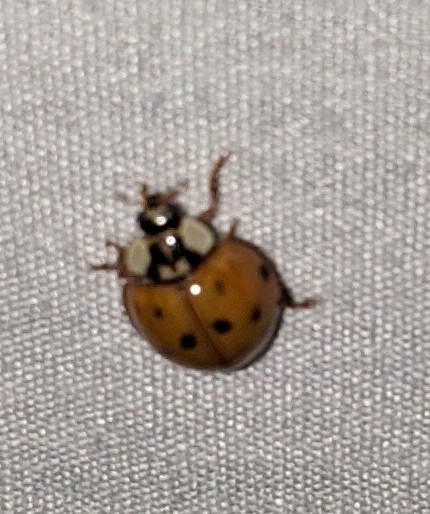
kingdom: Animalia
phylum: Arthropoda
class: Insecta
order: Coleoptera
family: Coccinellidae
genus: Harmonia
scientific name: Harmonia axyridis
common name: Harlequin ladybird
